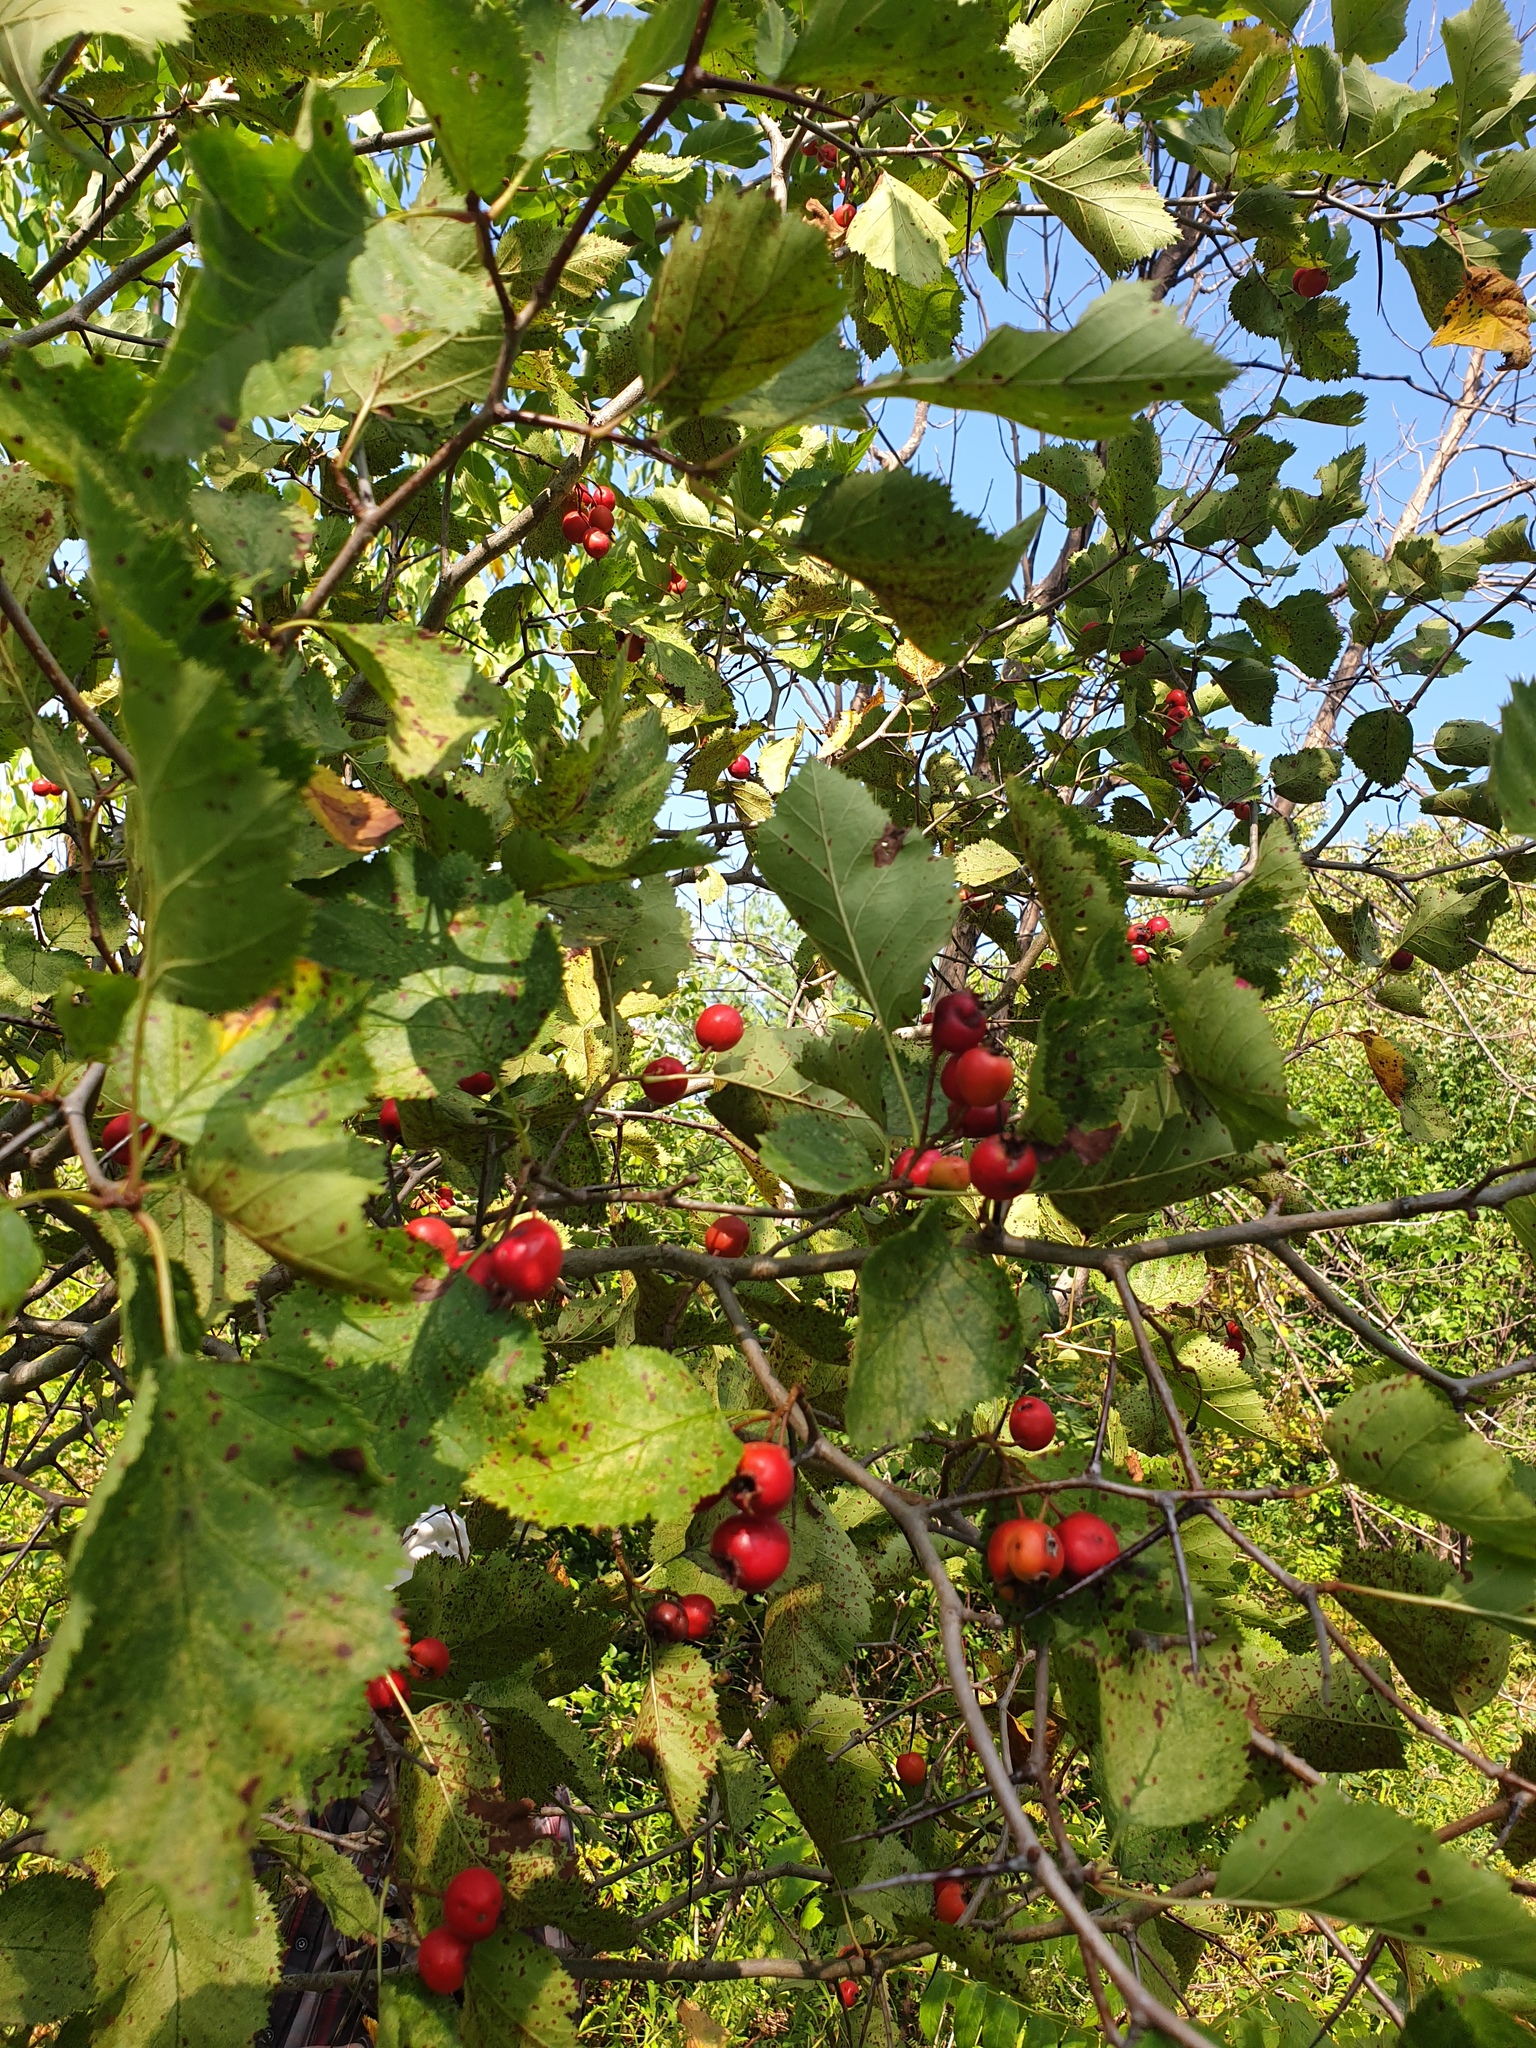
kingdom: Plantae
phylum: Tracheophyta
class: Magnoliopsida
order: Rosales
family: Rosaceae
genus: Crataegus
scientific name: Crataegus submollis
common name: Hairy cockspurthorn
